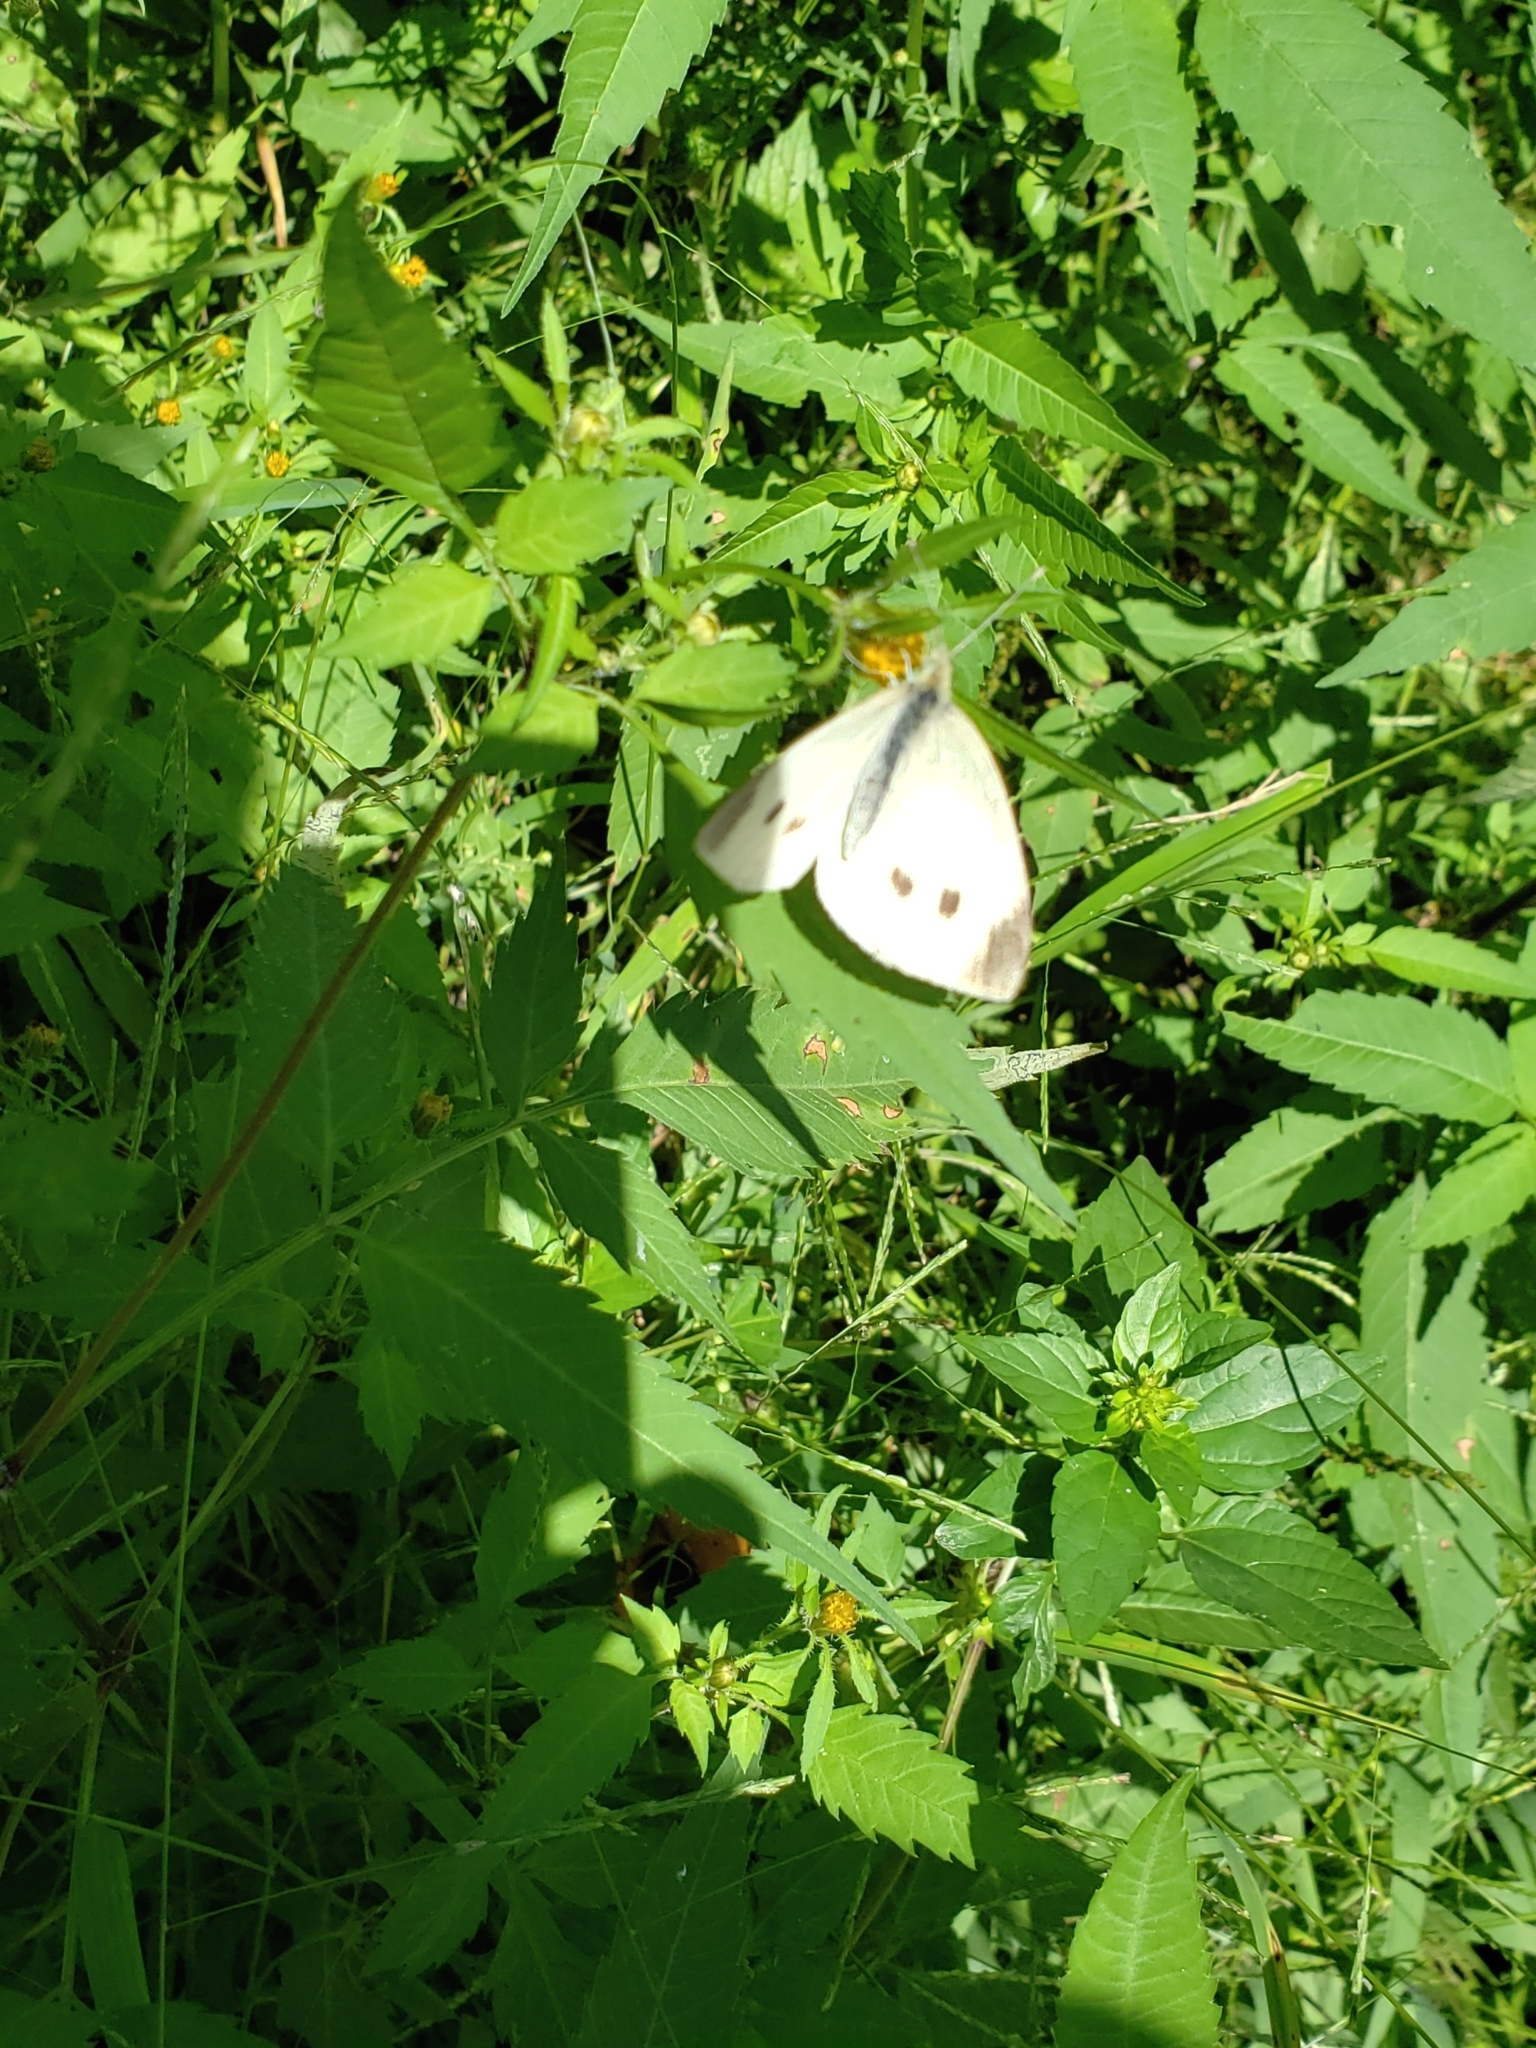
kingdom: Animalia
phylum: Arthropoda
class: Insecta
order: Lepidoptera
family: Pieridae
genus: Pieris
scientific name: Pieris rapae
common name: Small white
